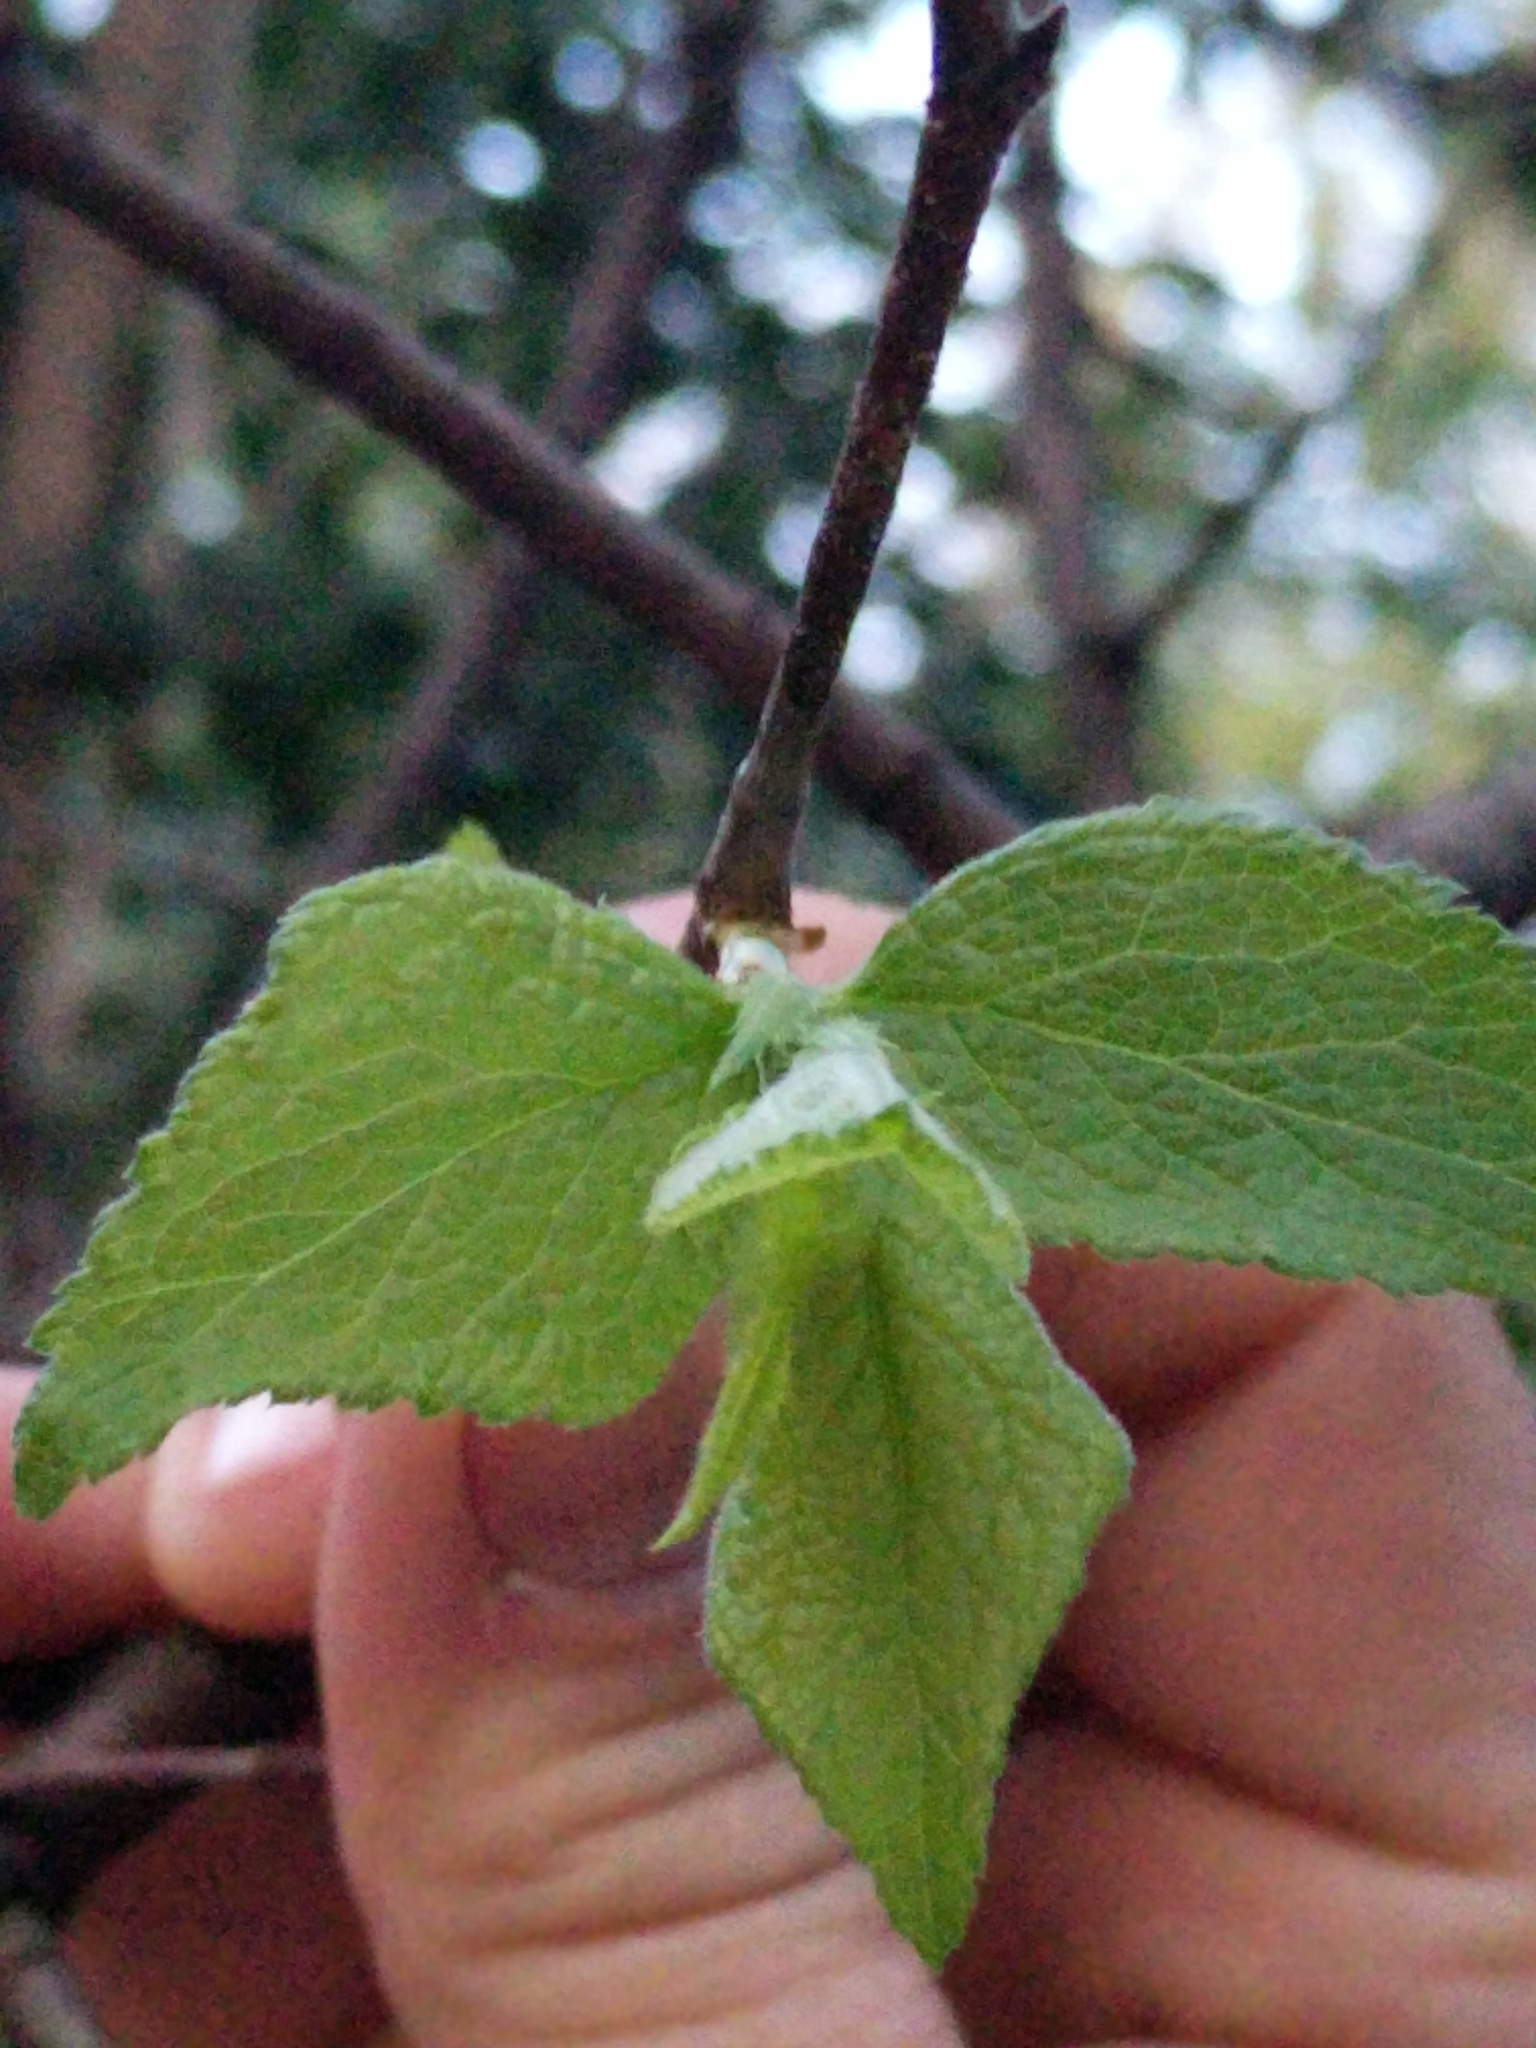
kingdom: Plantae
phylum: Tracheophyta
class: Magnoliopsida
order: Rosales
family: Rosaceae
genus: Prunus
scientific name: Prunus mexicana
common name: Mexican plum
